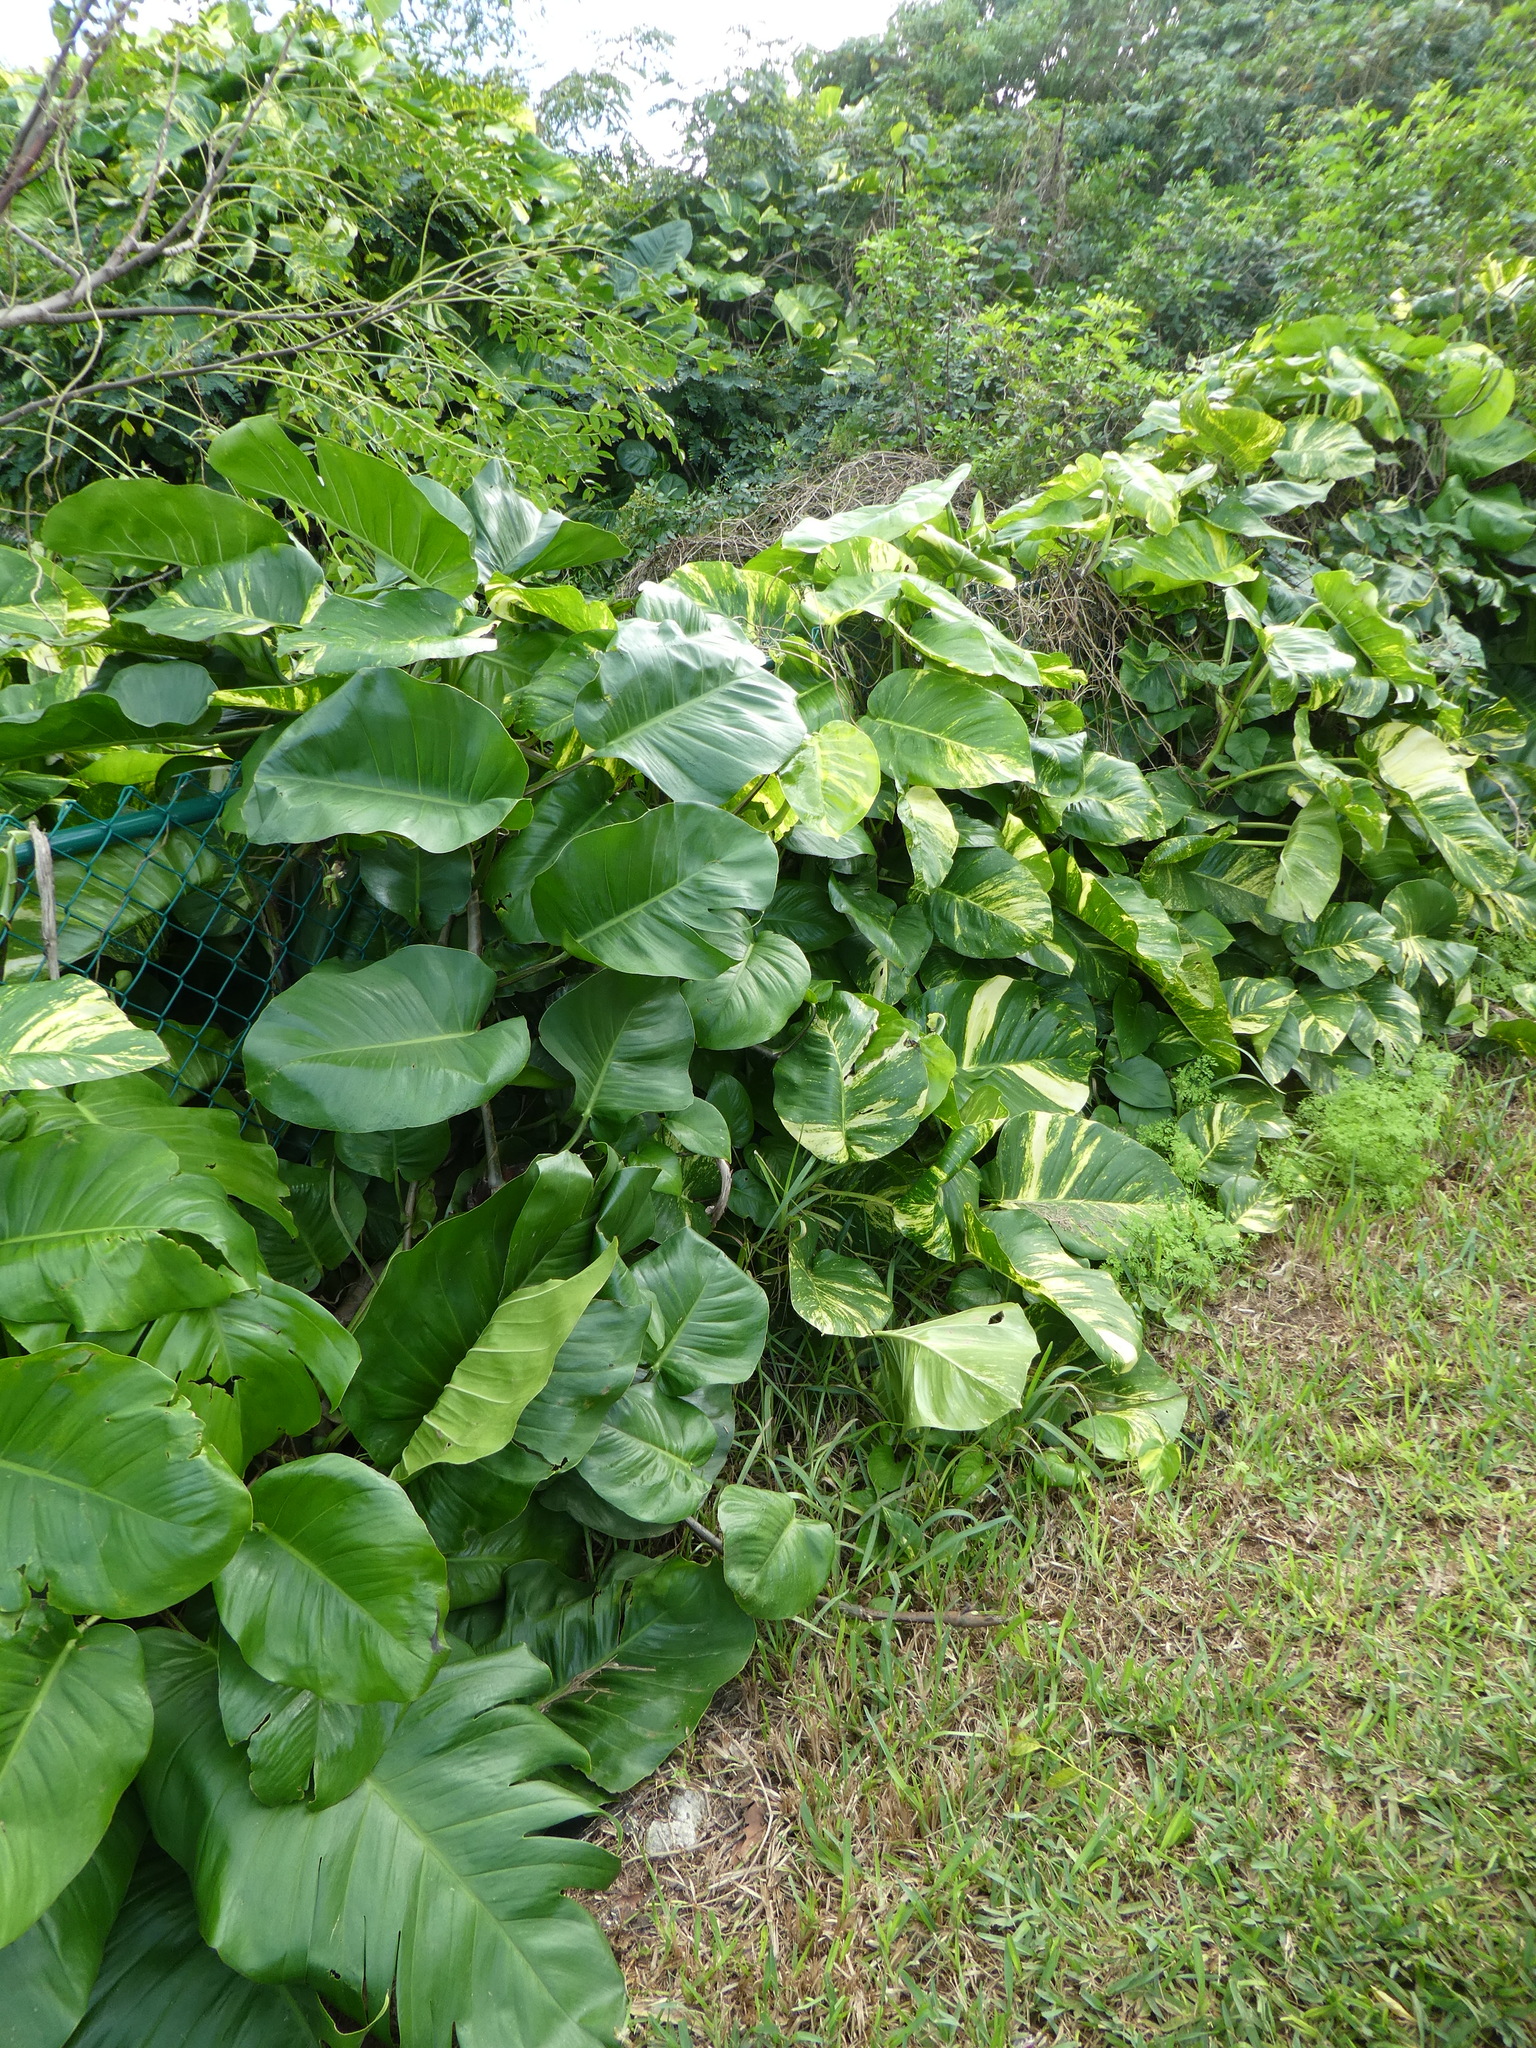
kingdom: Plantae
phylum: Tracheophyta
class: Liliopsida
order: Alismatales
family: Araceae
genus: Epipremnum
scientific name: Epipremnum aureum
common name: Golden hunter's-robe
